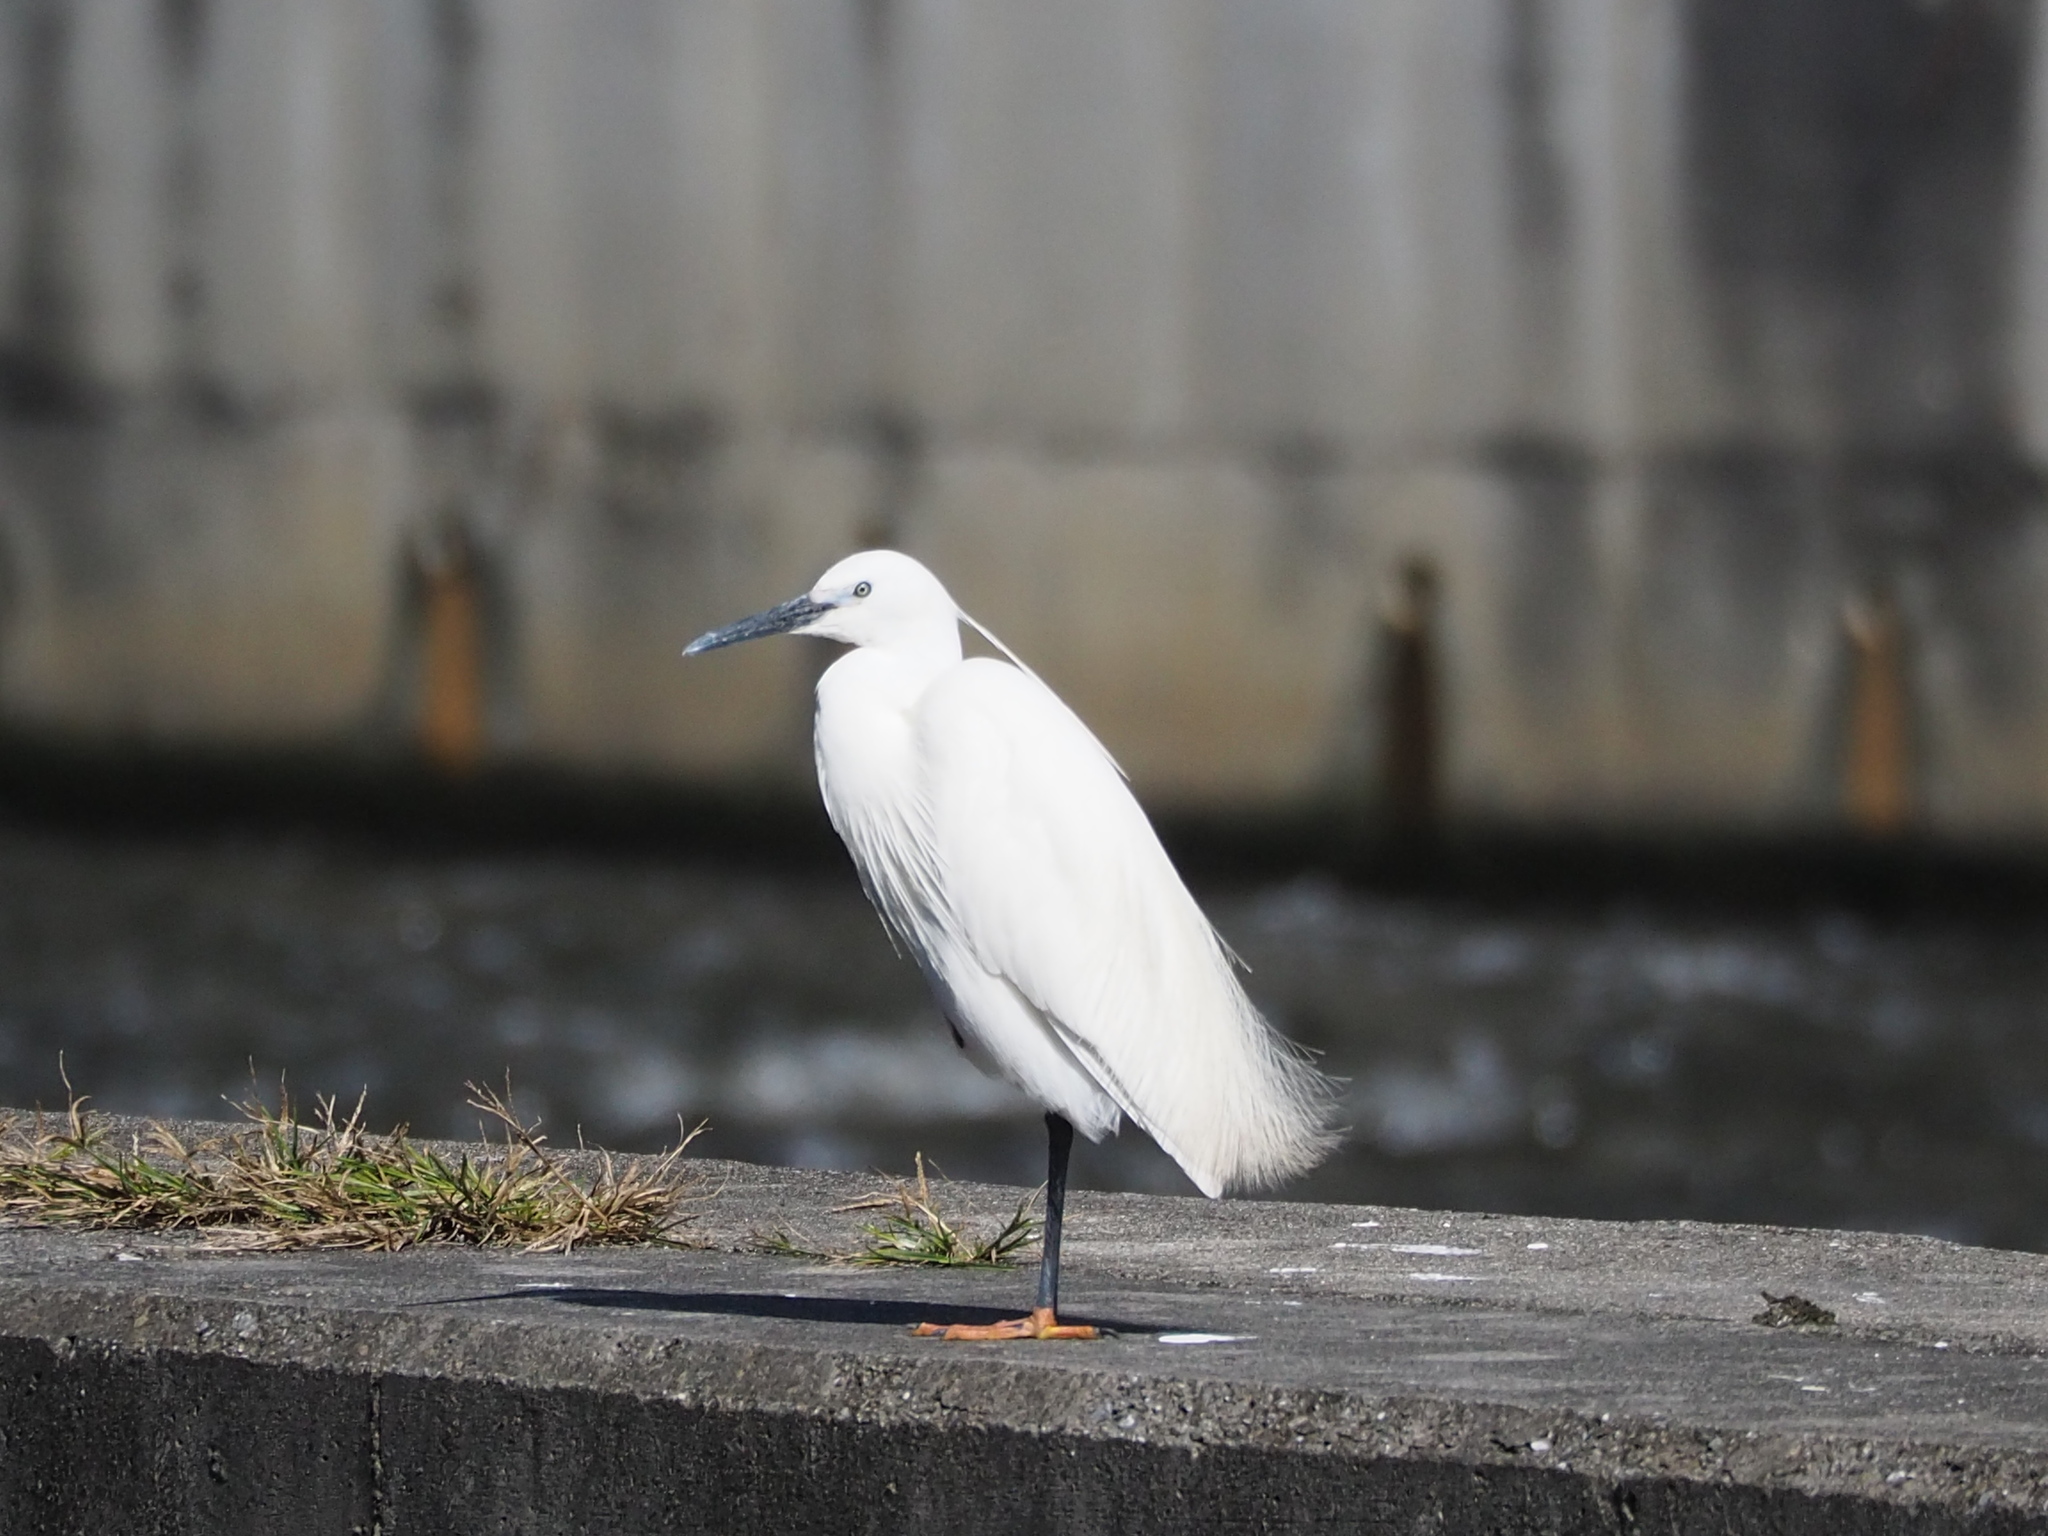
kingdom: Animalia
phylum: Chordata
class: Aves
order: Pelecaniformes
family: Ardeidae
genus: Egretta
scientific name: Egretta garzetta
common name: Little egret
